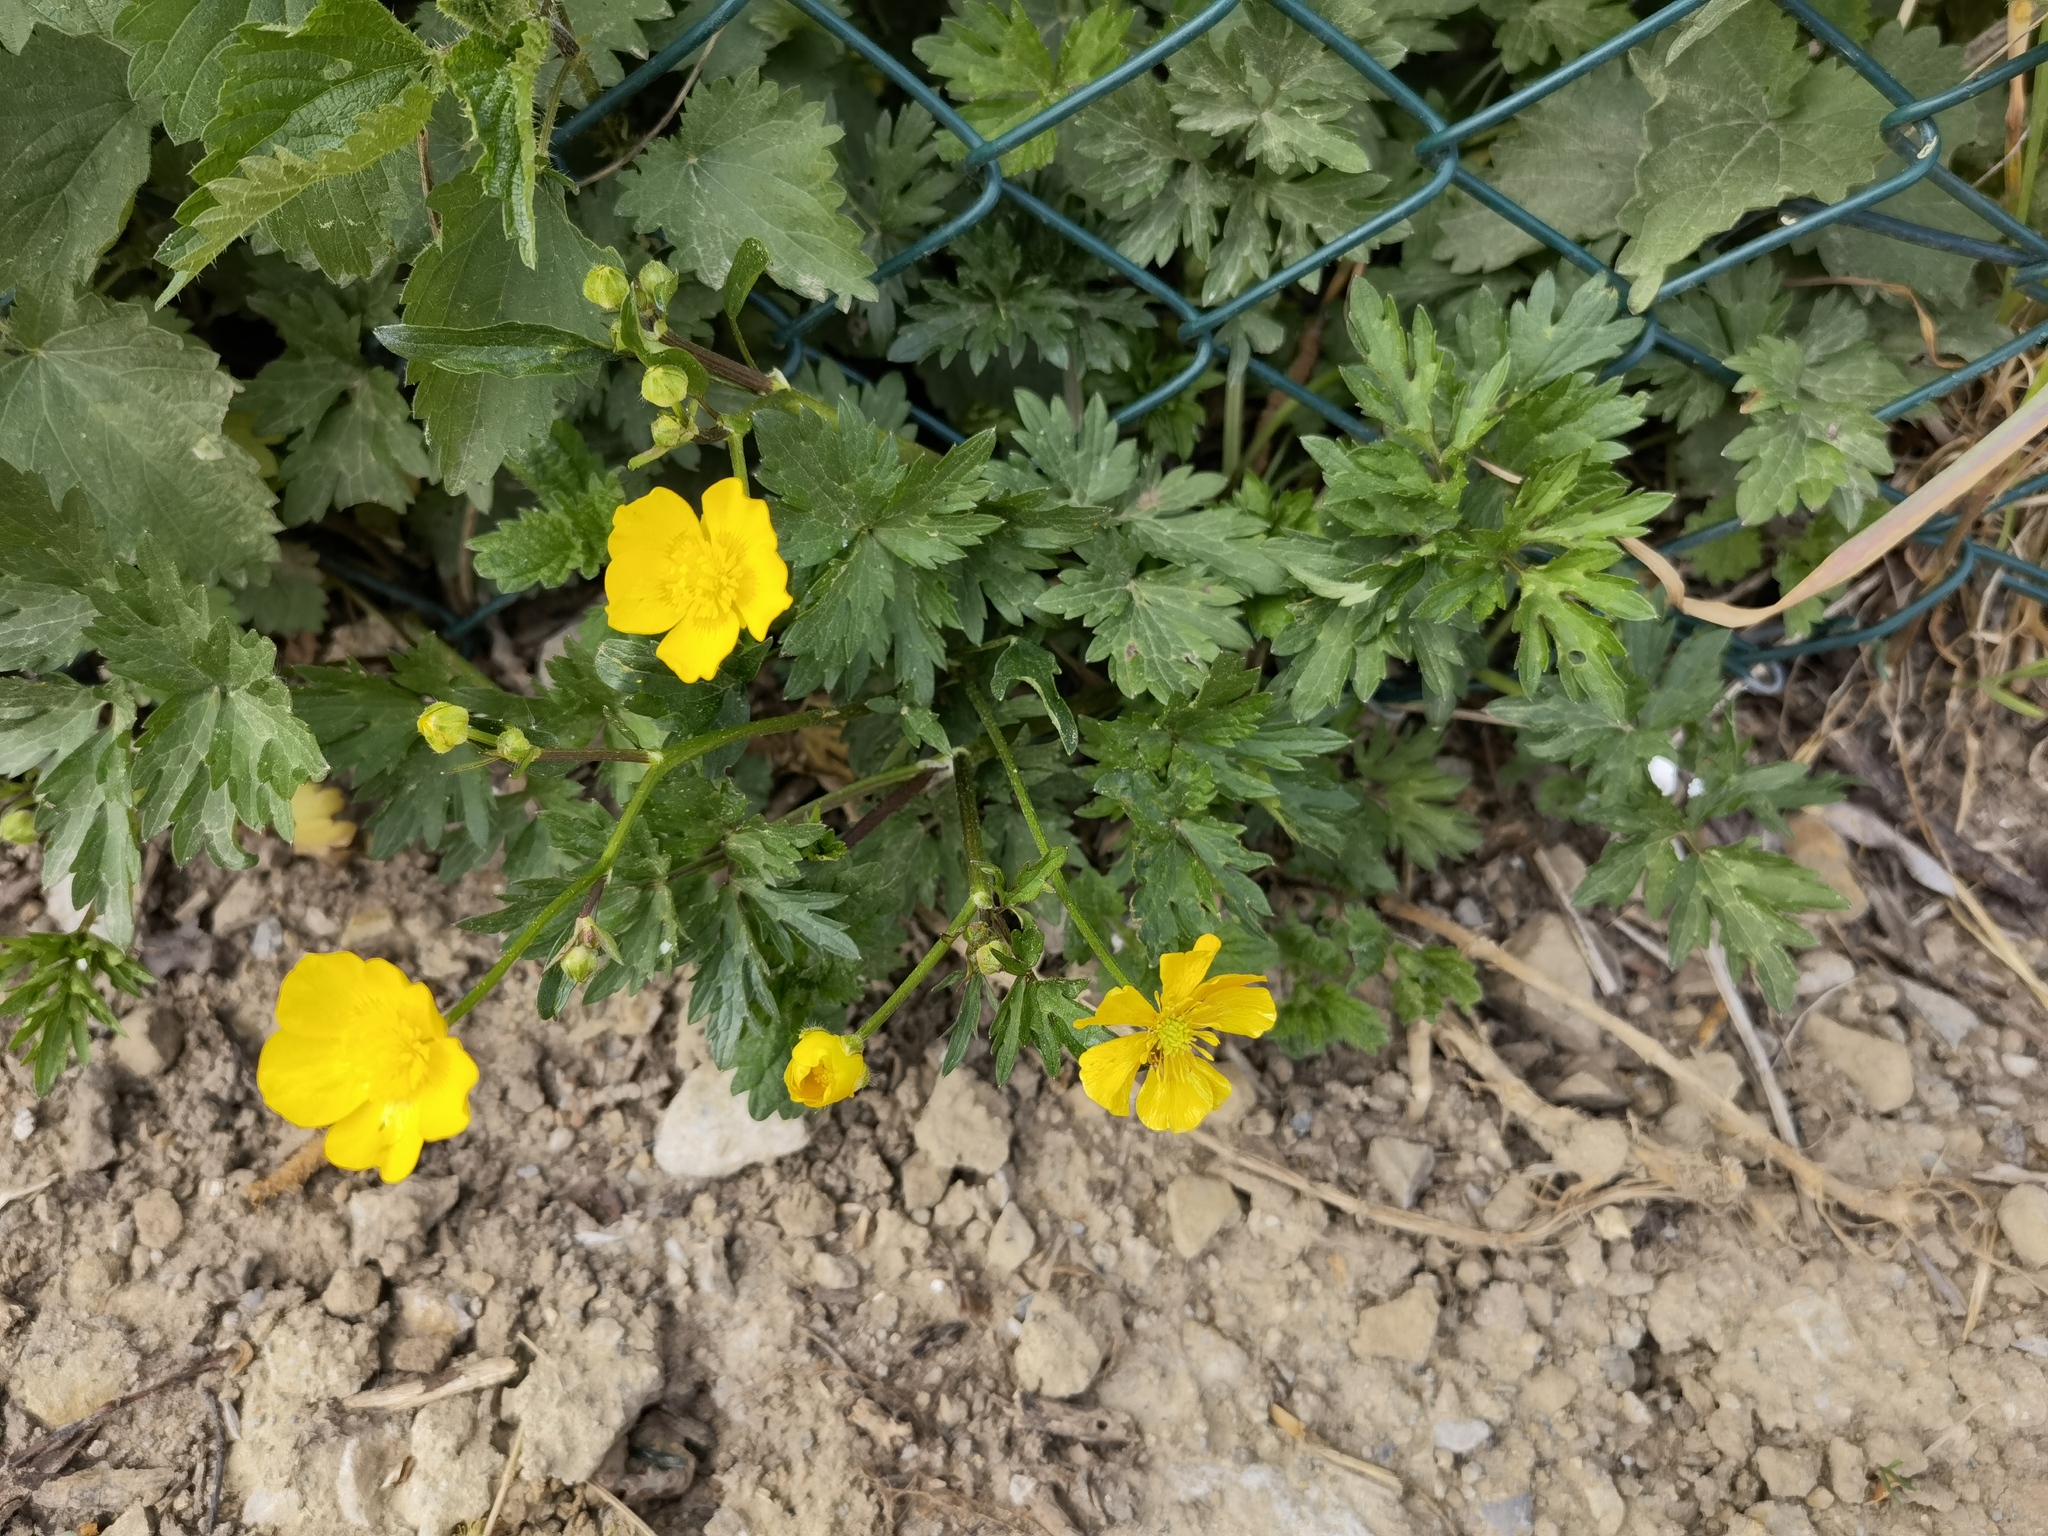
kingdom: Plantae
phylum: Tracheophyta
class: Magnoliopsida
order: Ranunculales
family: Ranunculaceae
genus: Ranunculus
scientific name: Ranunculus repens
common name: Creeping buttercup
